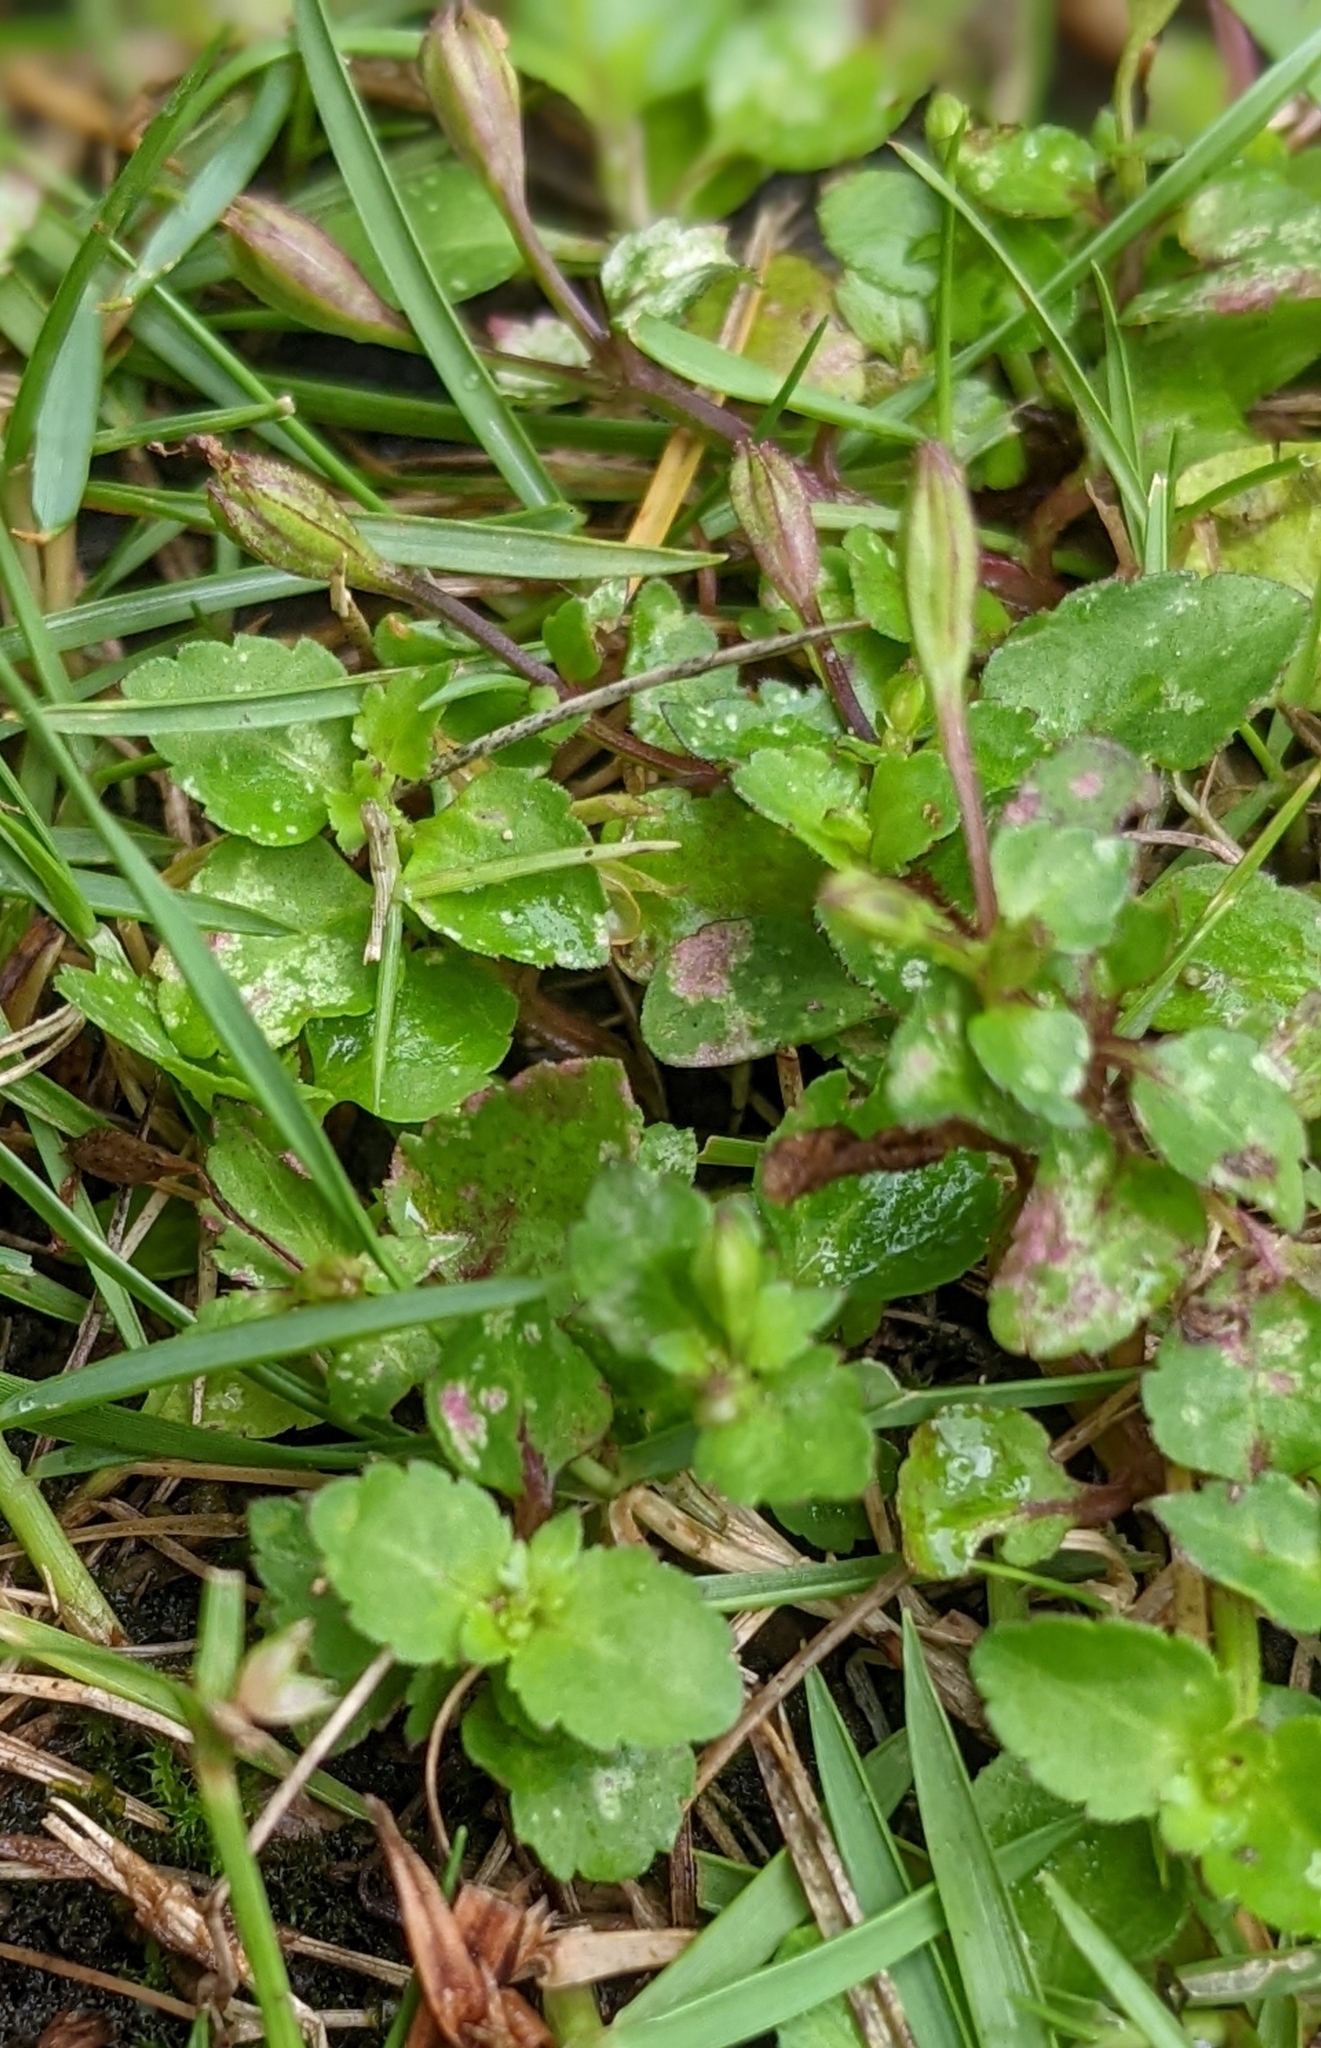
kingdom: Plantae
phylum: Tracheophyta
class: Magnoliopsida
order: Lamiales
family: Linderniaceae
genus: Torenia
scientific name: Torenia crustacea
